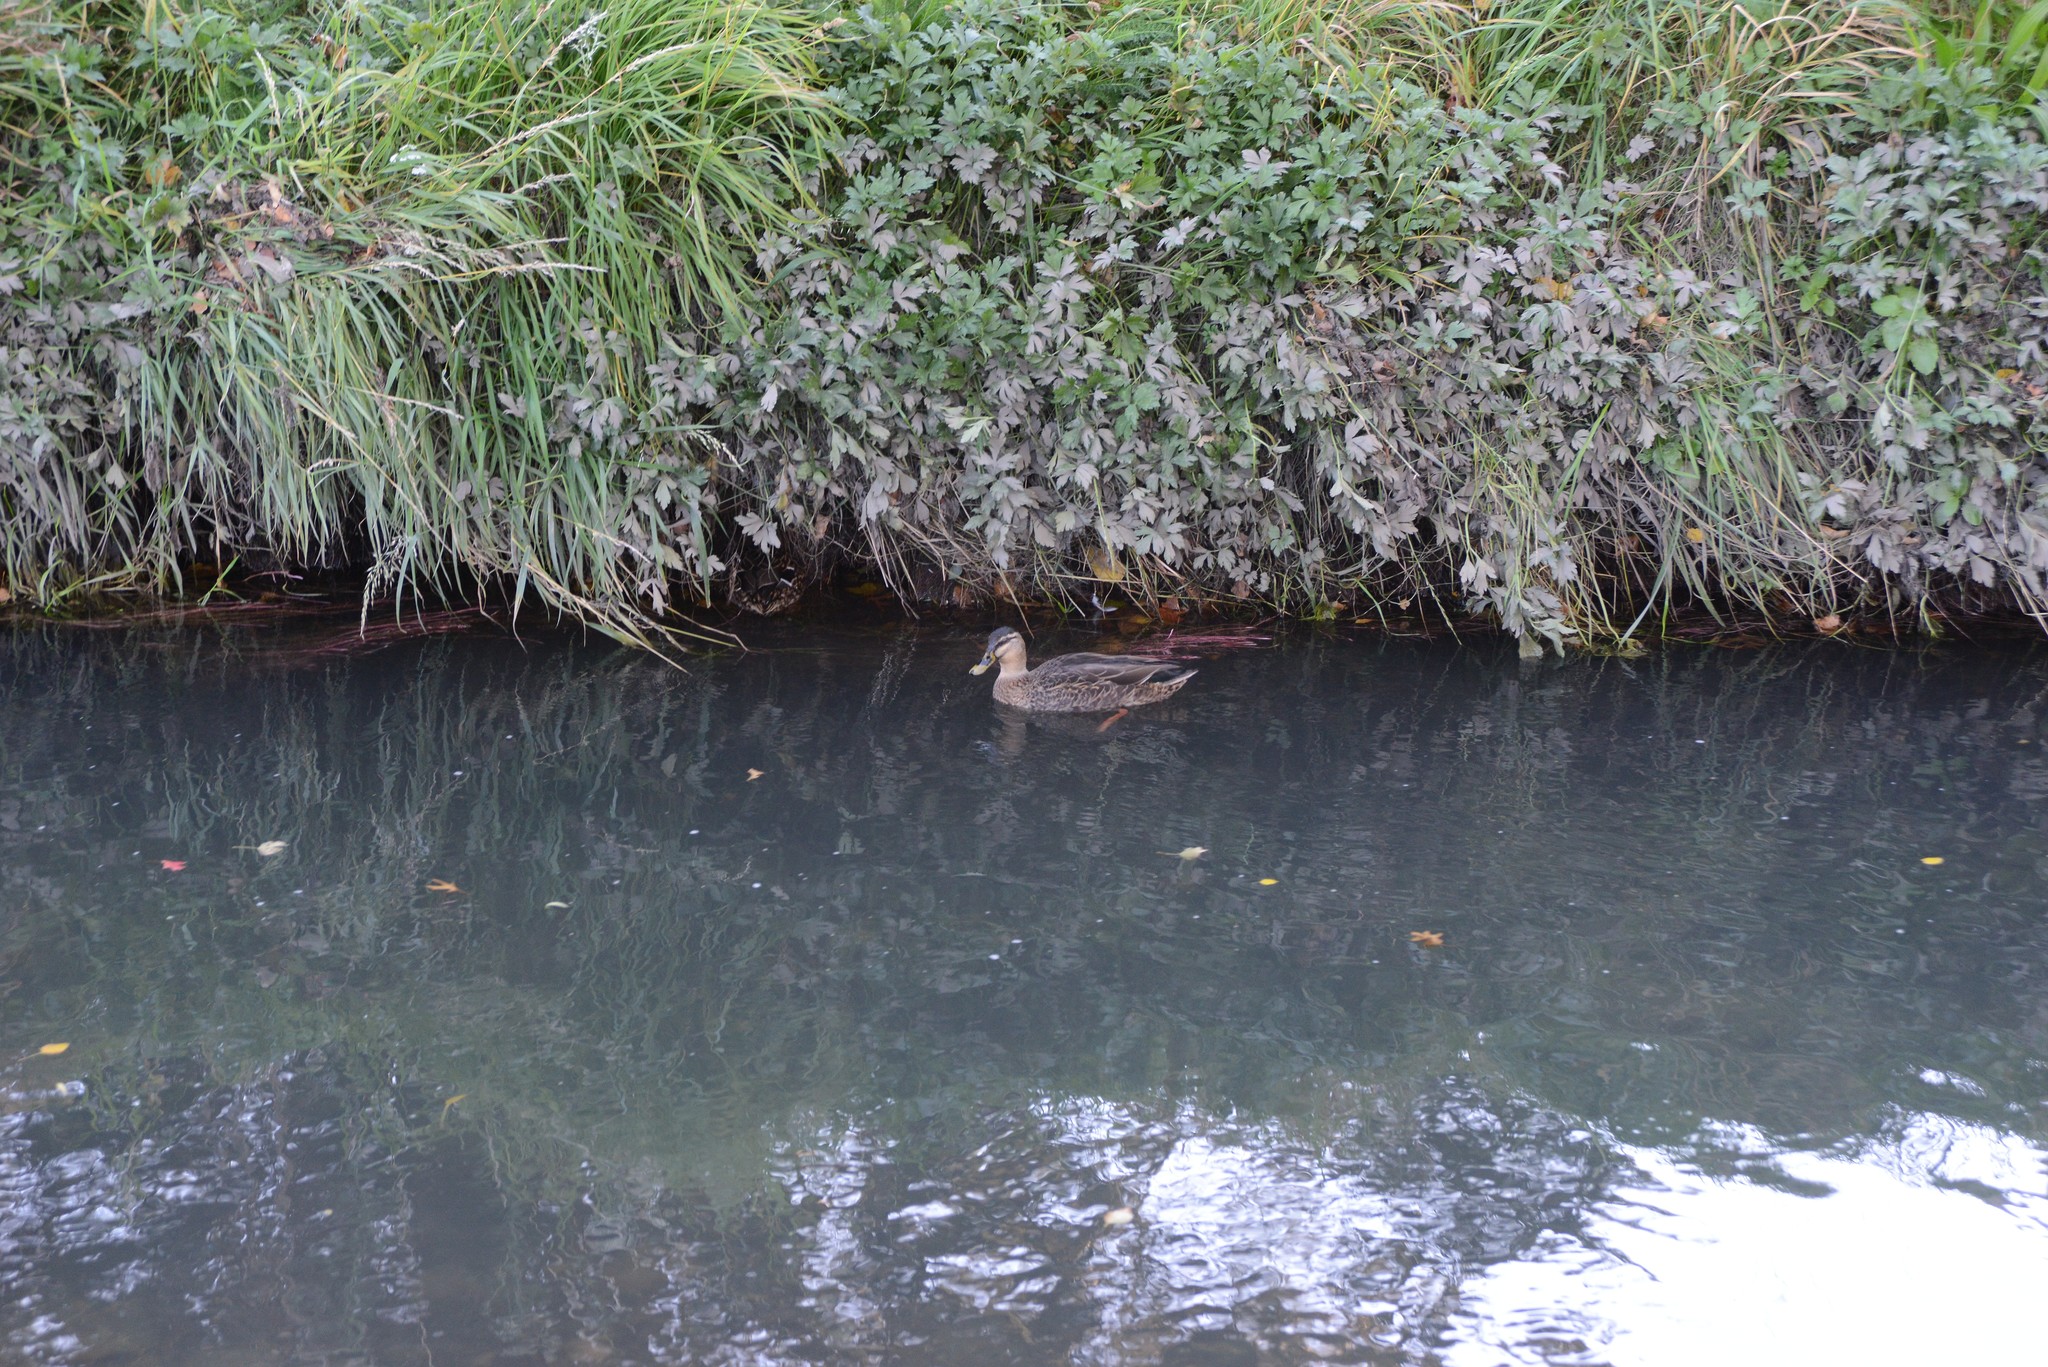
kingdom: Animalia
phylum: Chordata
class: Aves
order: Anseriformes
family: Anatidae
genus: Anas
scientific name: Anas platyrhynchos
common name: Mallard
